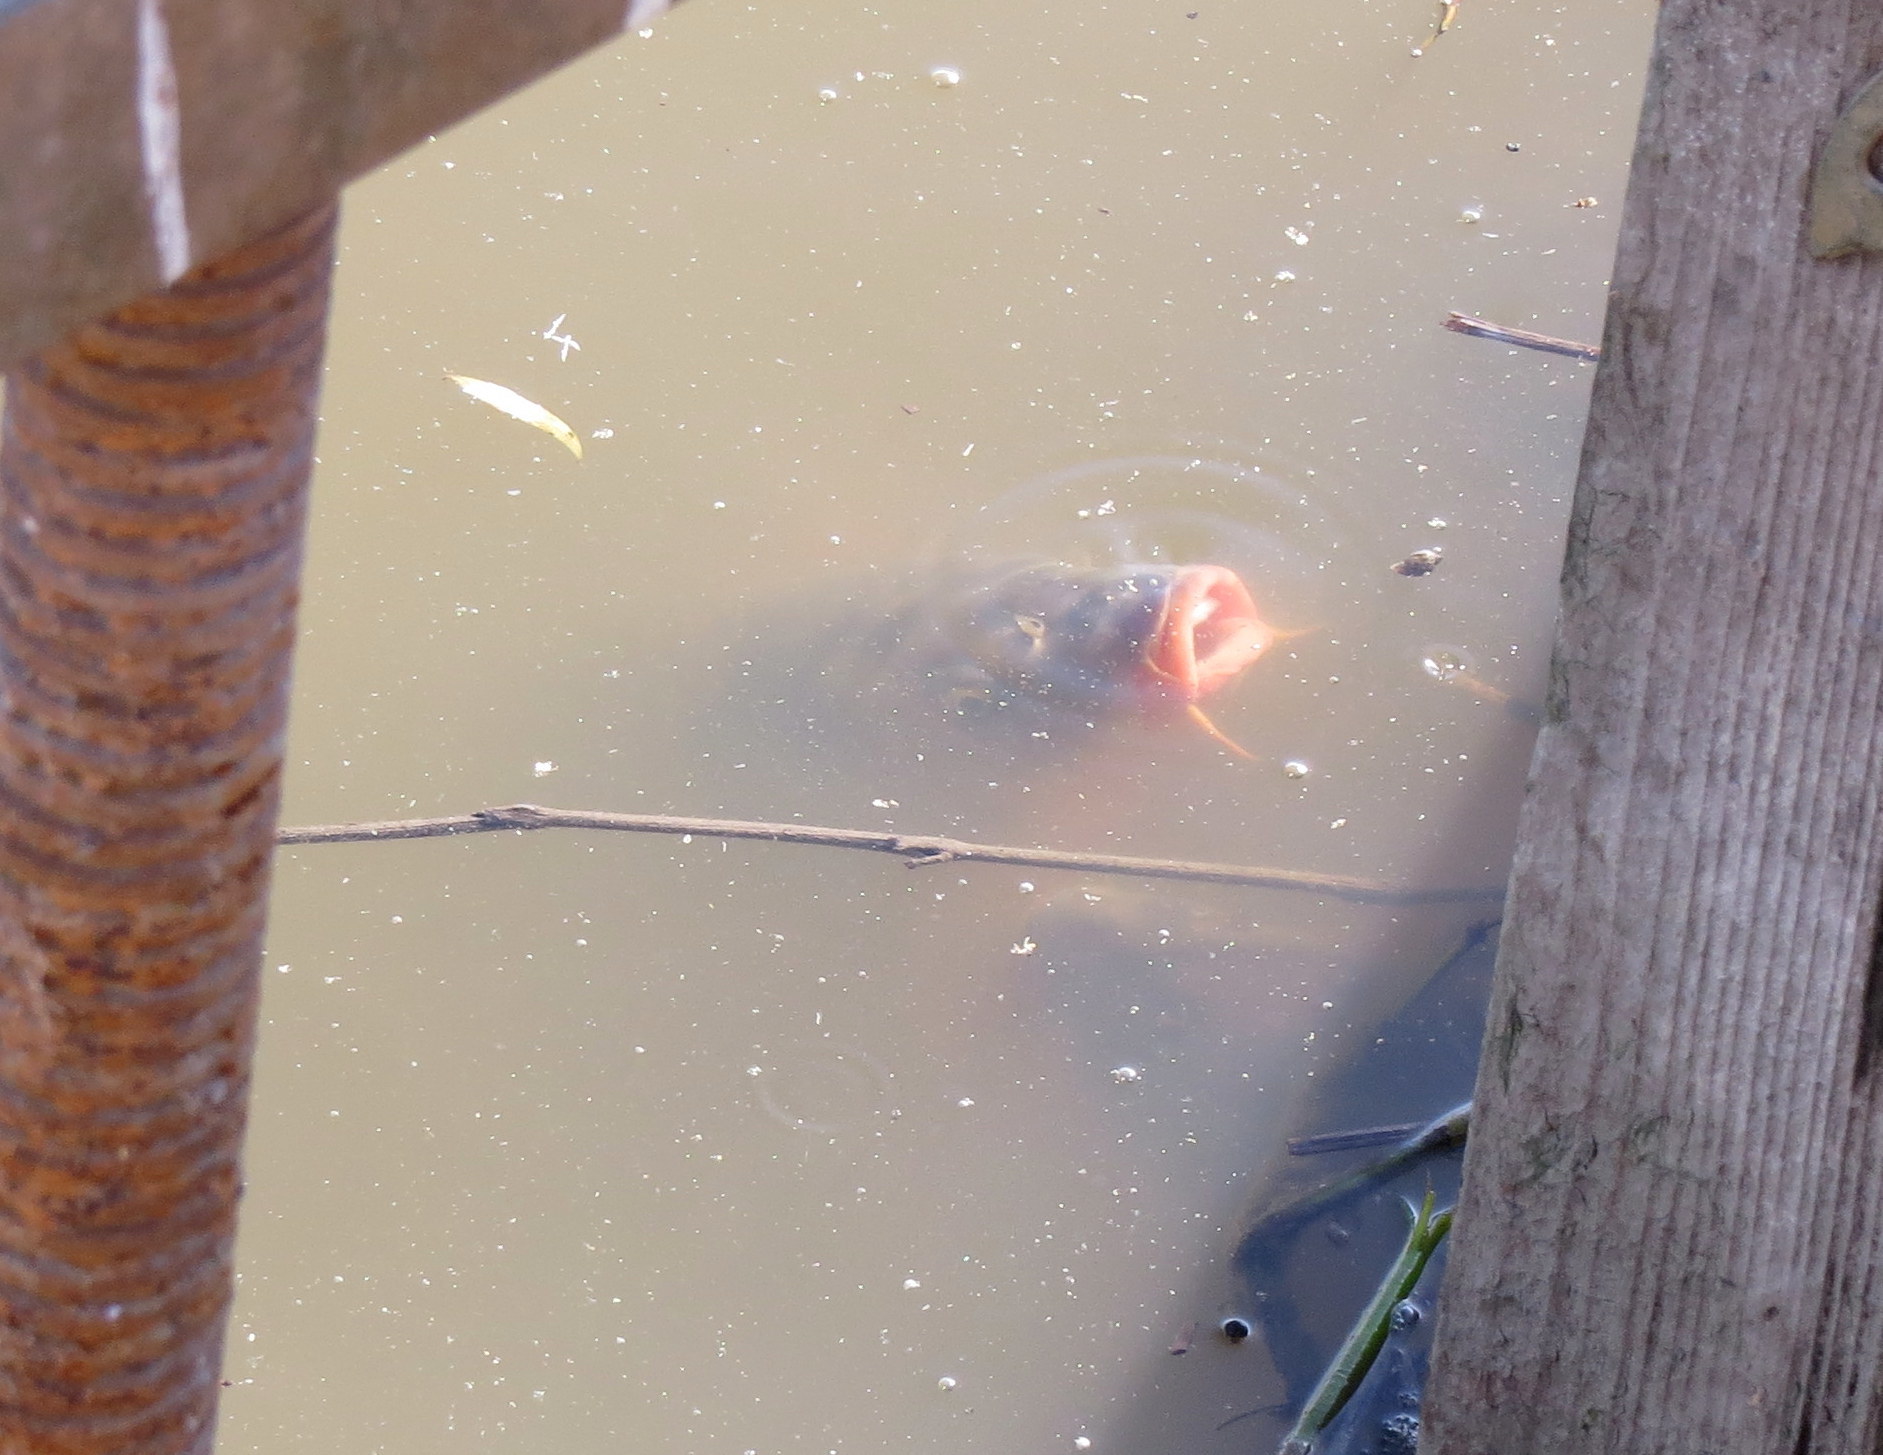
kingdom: Animalia
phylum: Chordata
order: Cypriniformes
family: Cyprinidae
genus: Cyprinus
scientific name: Cyprinus carpio
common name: Common carp
